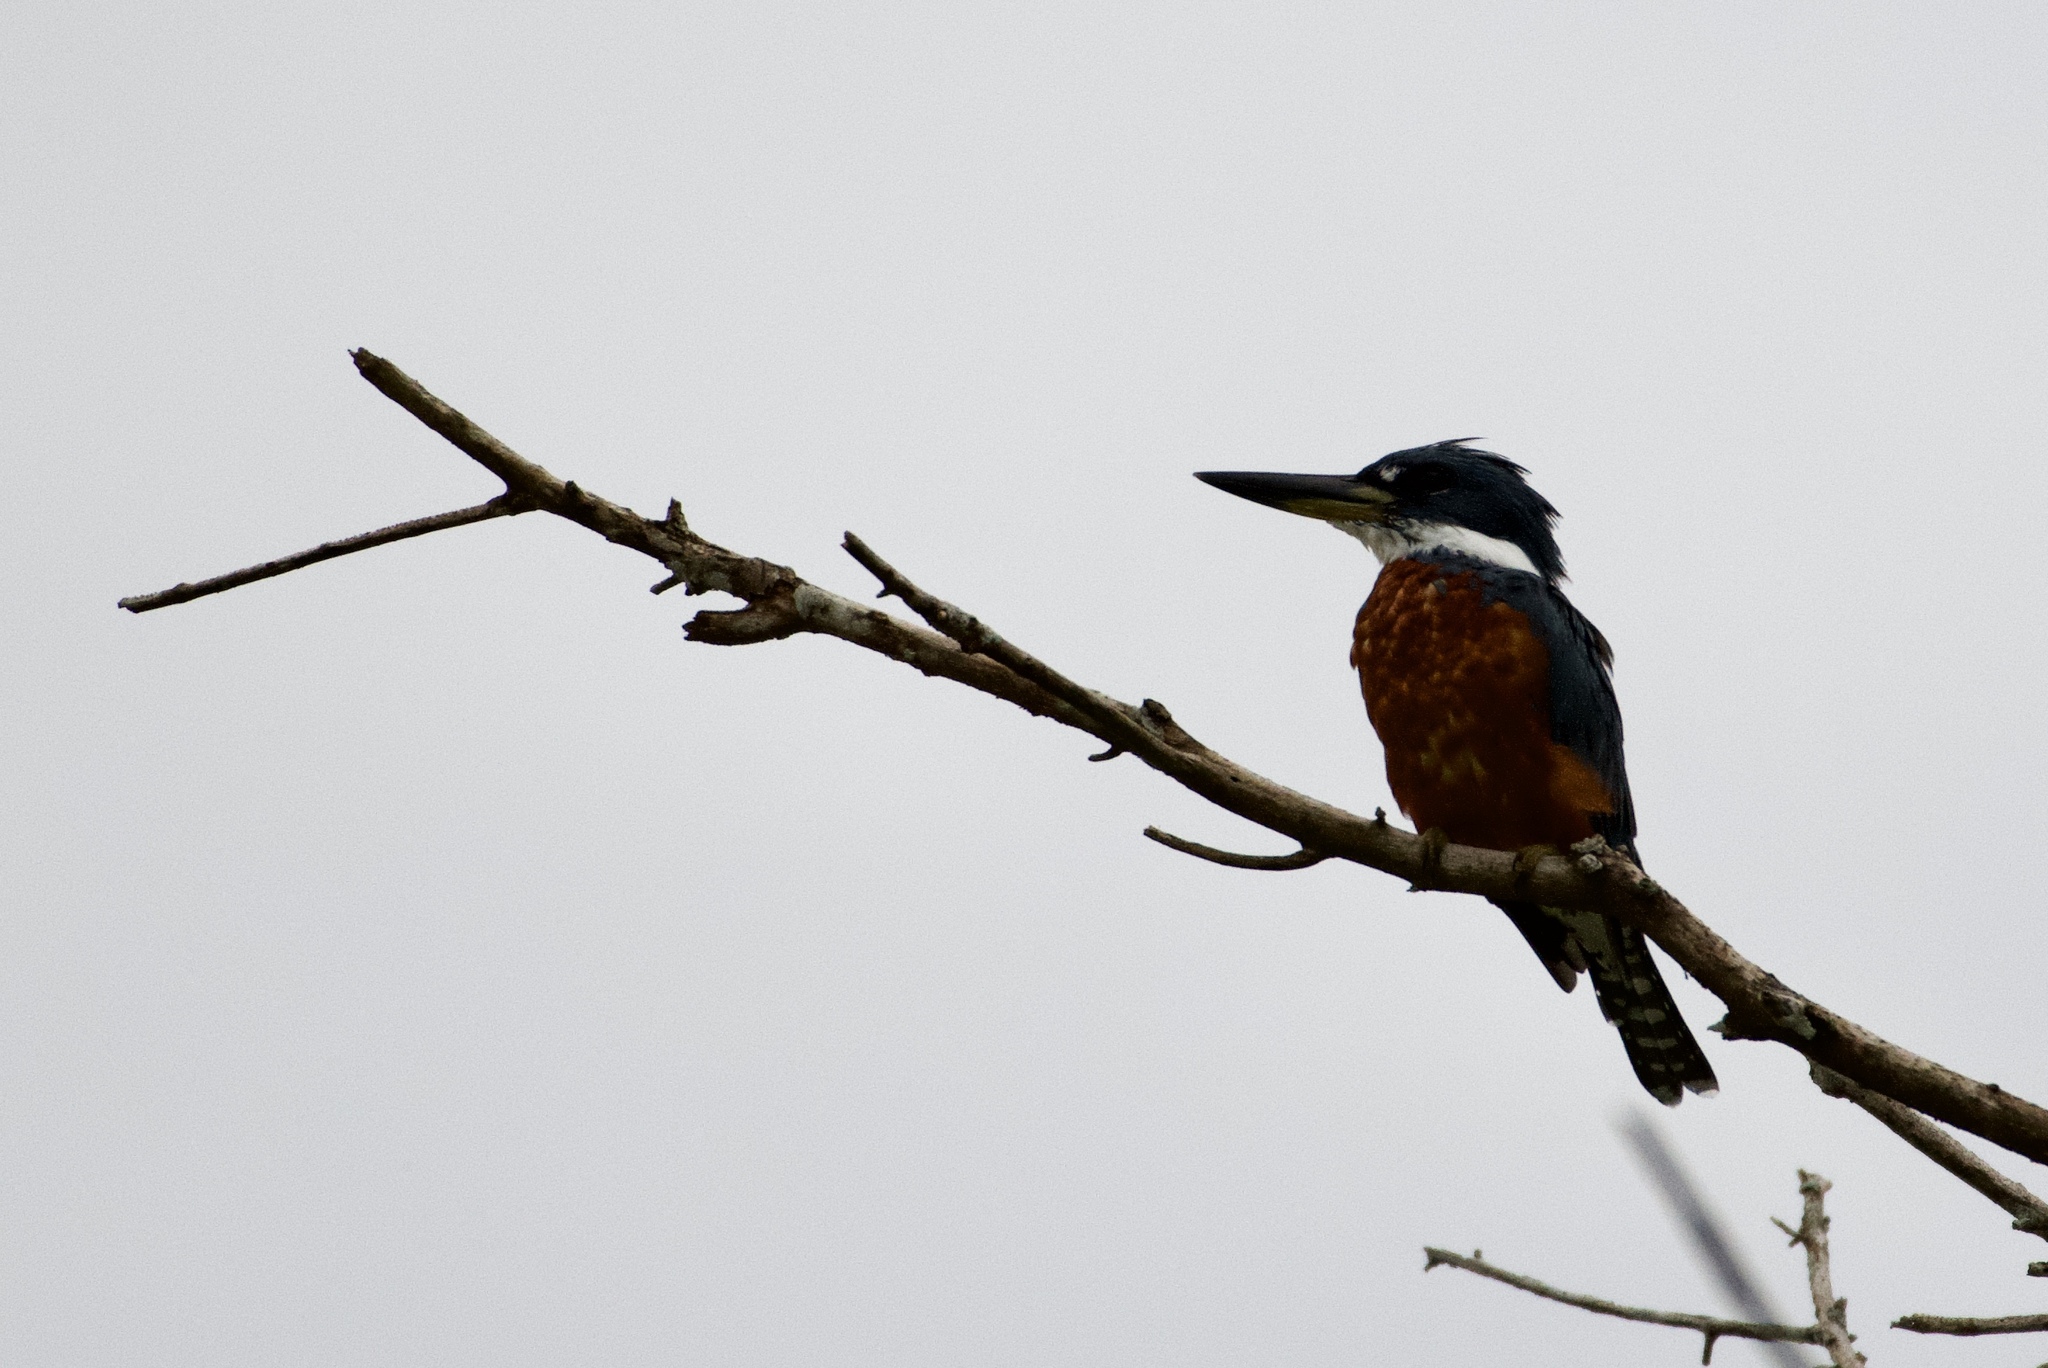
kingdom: Animalia
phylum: Chordata
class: Aves
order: Coraciiformes
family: Alcedinidae
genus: Megaceryle
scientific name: Megaceryle torquata
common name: Ringed kingfisher
